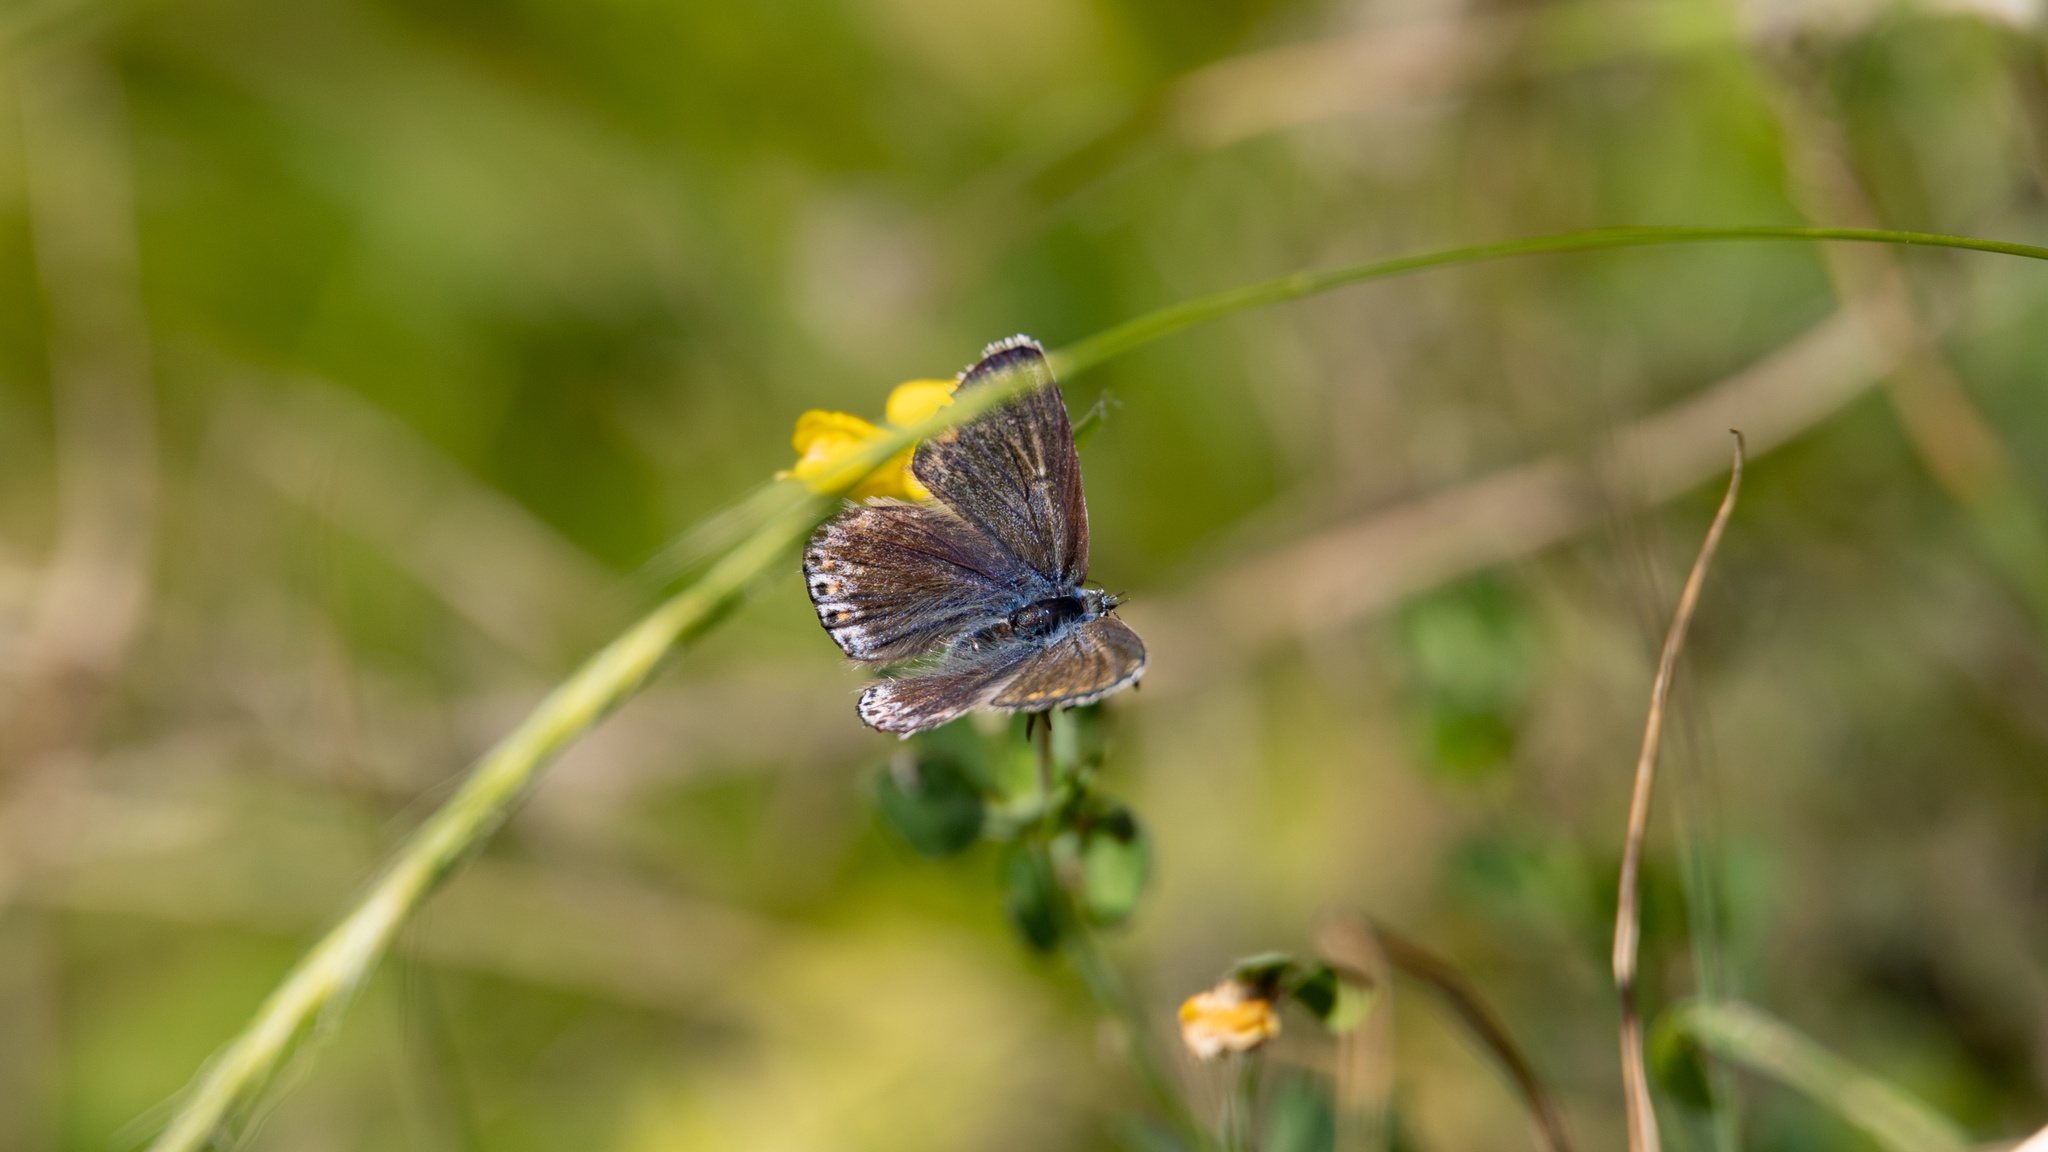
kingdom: Animalia
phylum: Arthropoda
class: Insecta
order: Lepidoptera
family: Lycaenidae
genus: Polyommatus
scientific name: Polyommatus icarus
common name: Common blue
